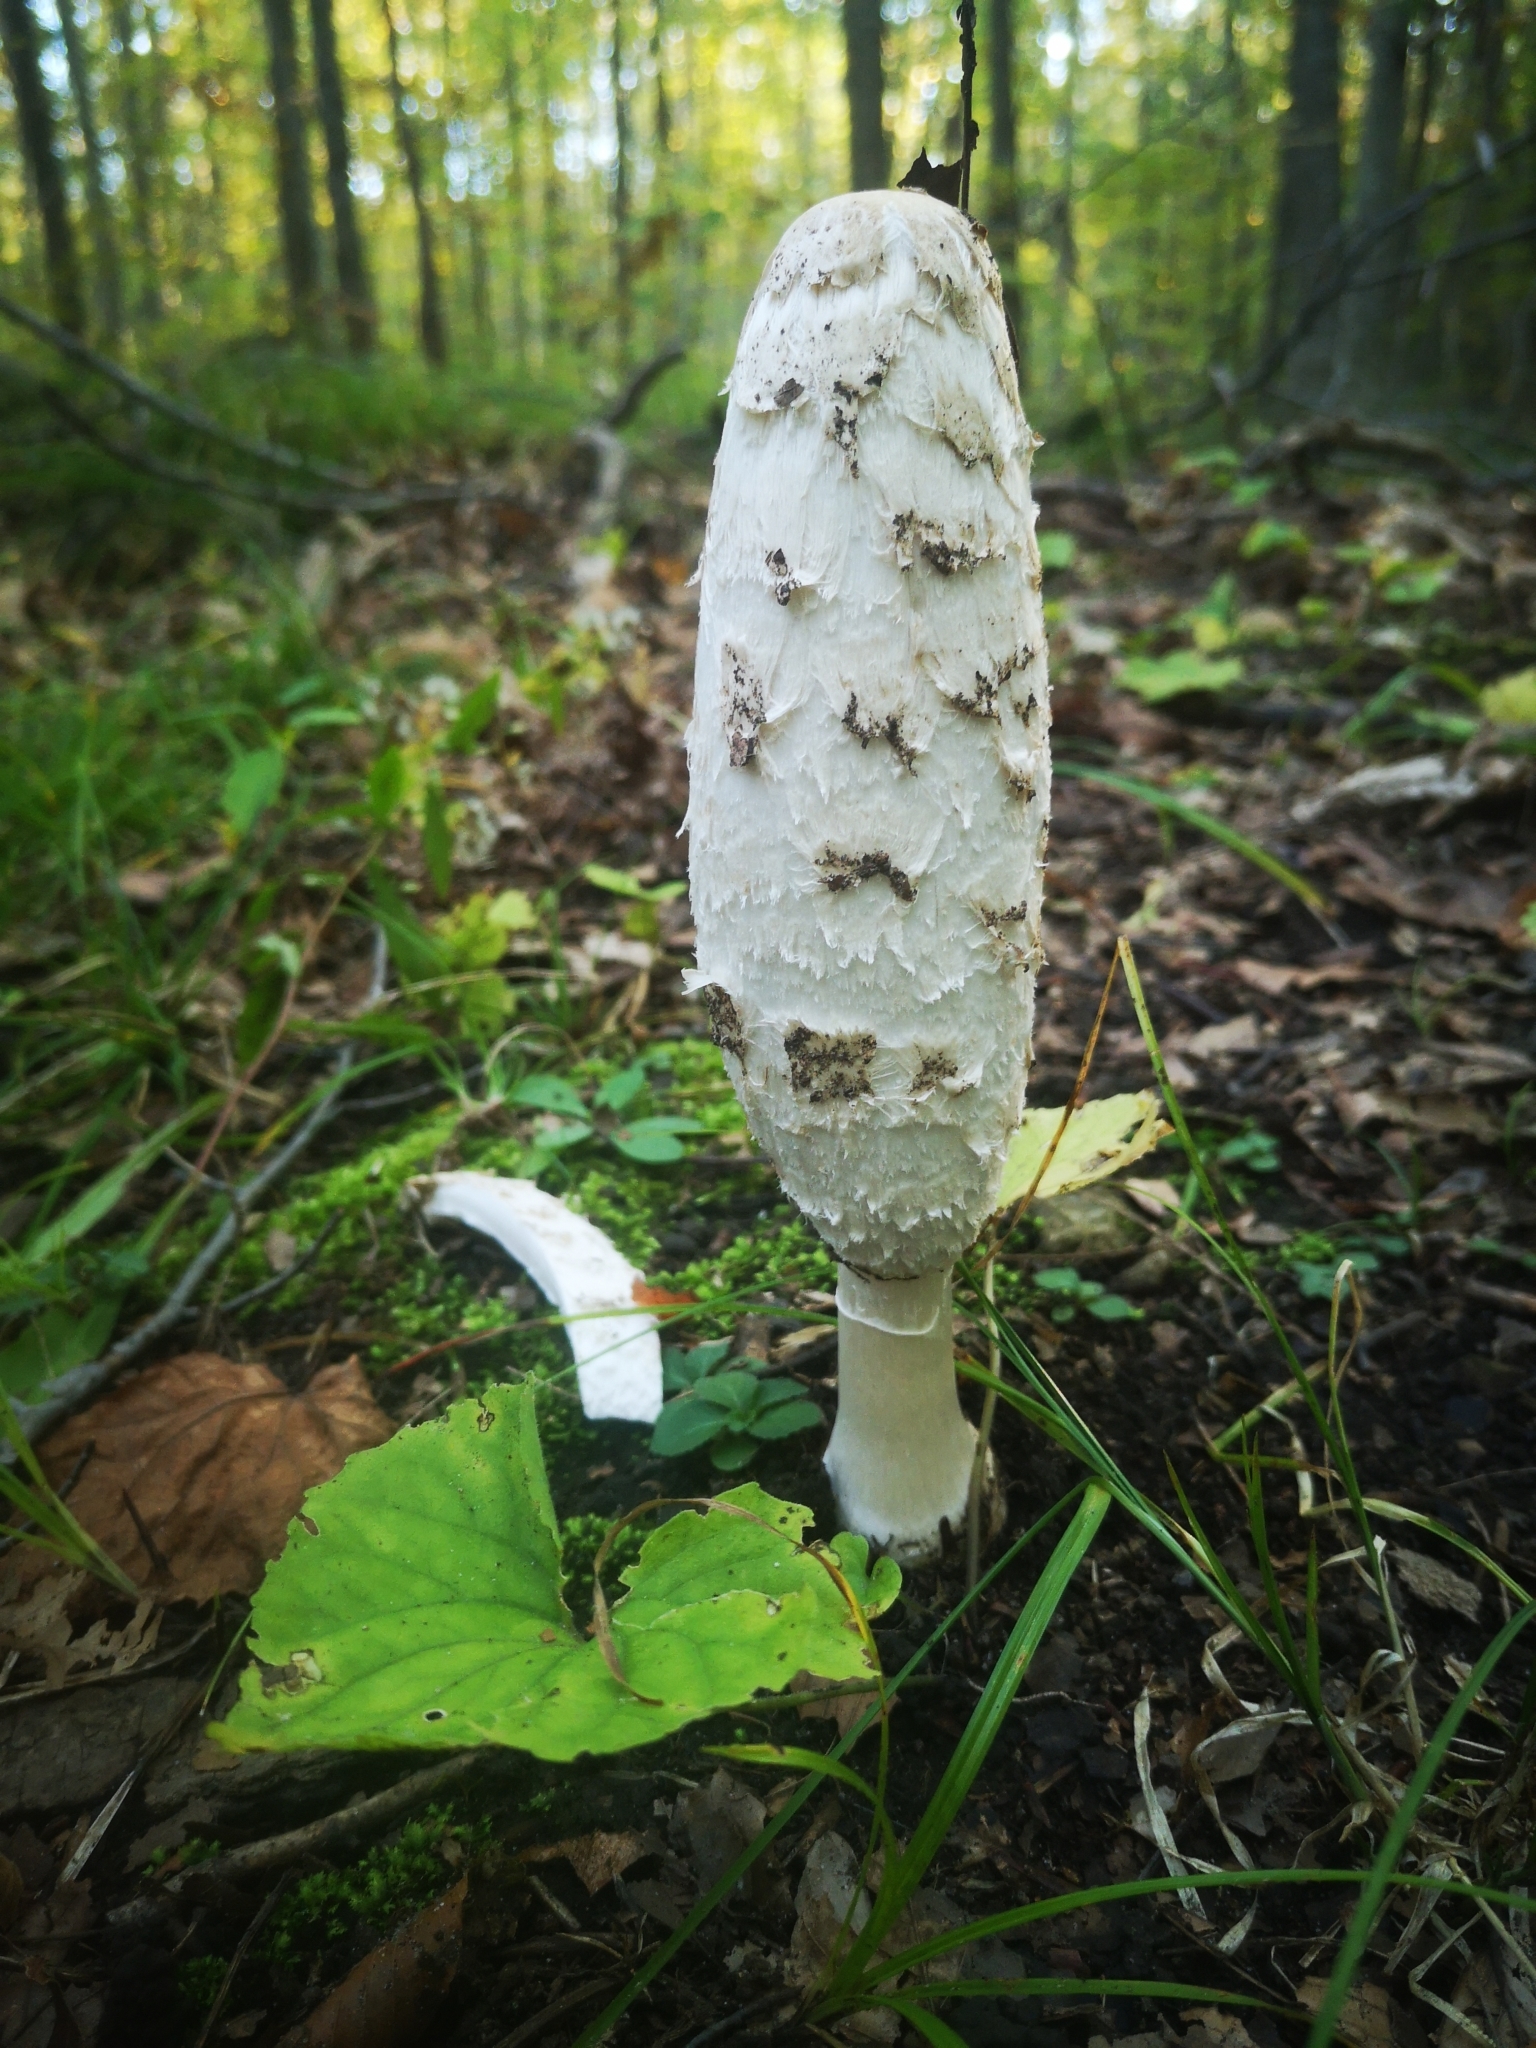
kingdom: Fungi
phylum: Basidiomycota
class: Agaricomycetes
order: Agaricales
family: Agaricaceae
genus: Coprinus
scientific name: Coprinus comatus
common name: Lawyer's wig
